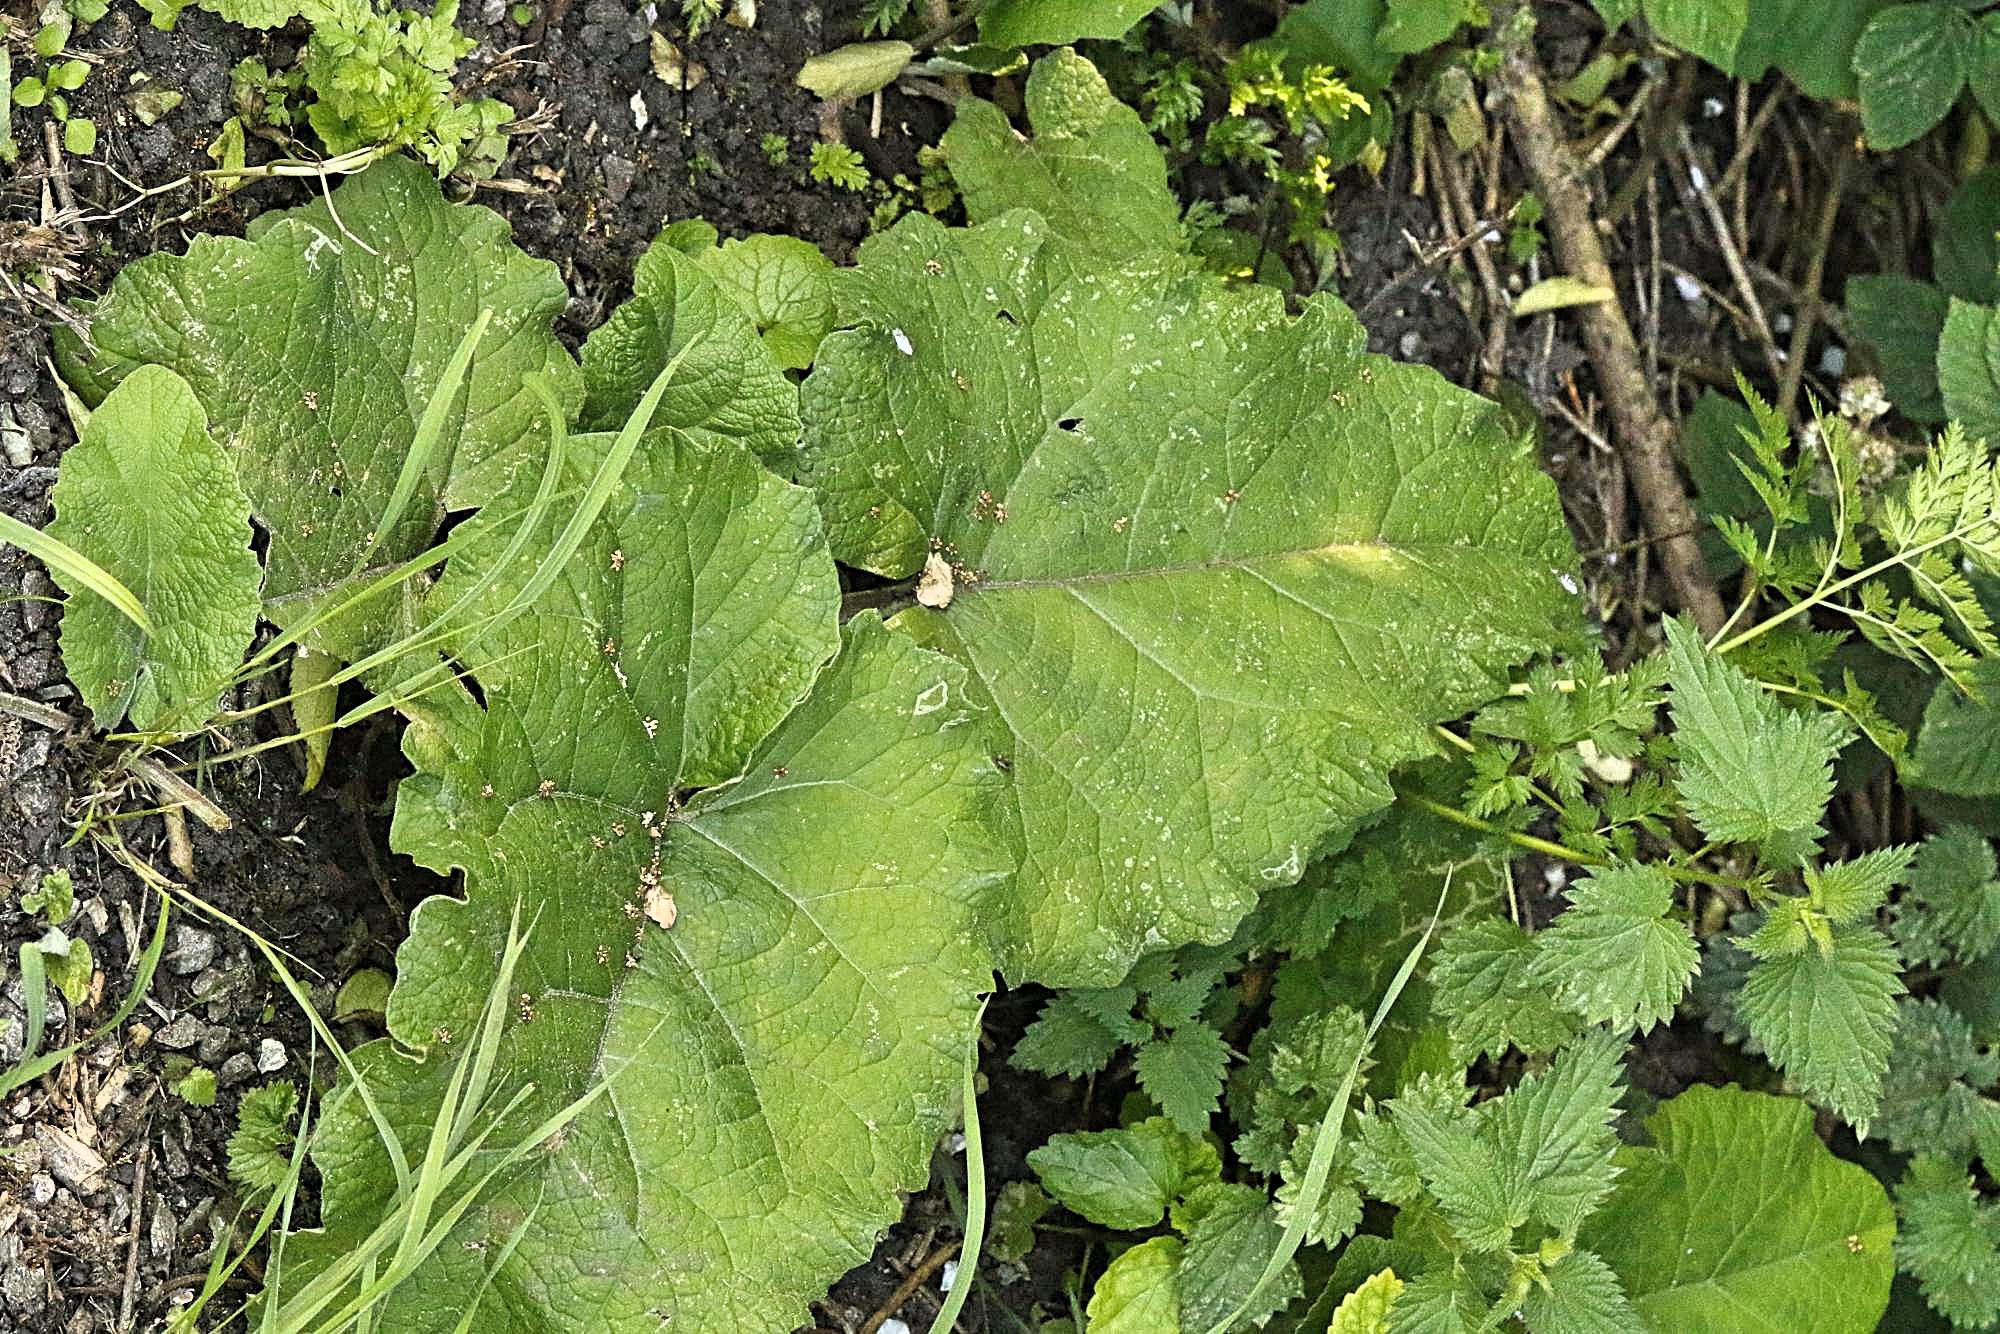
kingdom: Plantae
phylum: Tracheophyta
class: Magnoliopsida
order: Asterales
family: Asteraceae
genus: Arctium
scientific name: Arctium minus
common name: Lesser burdock
